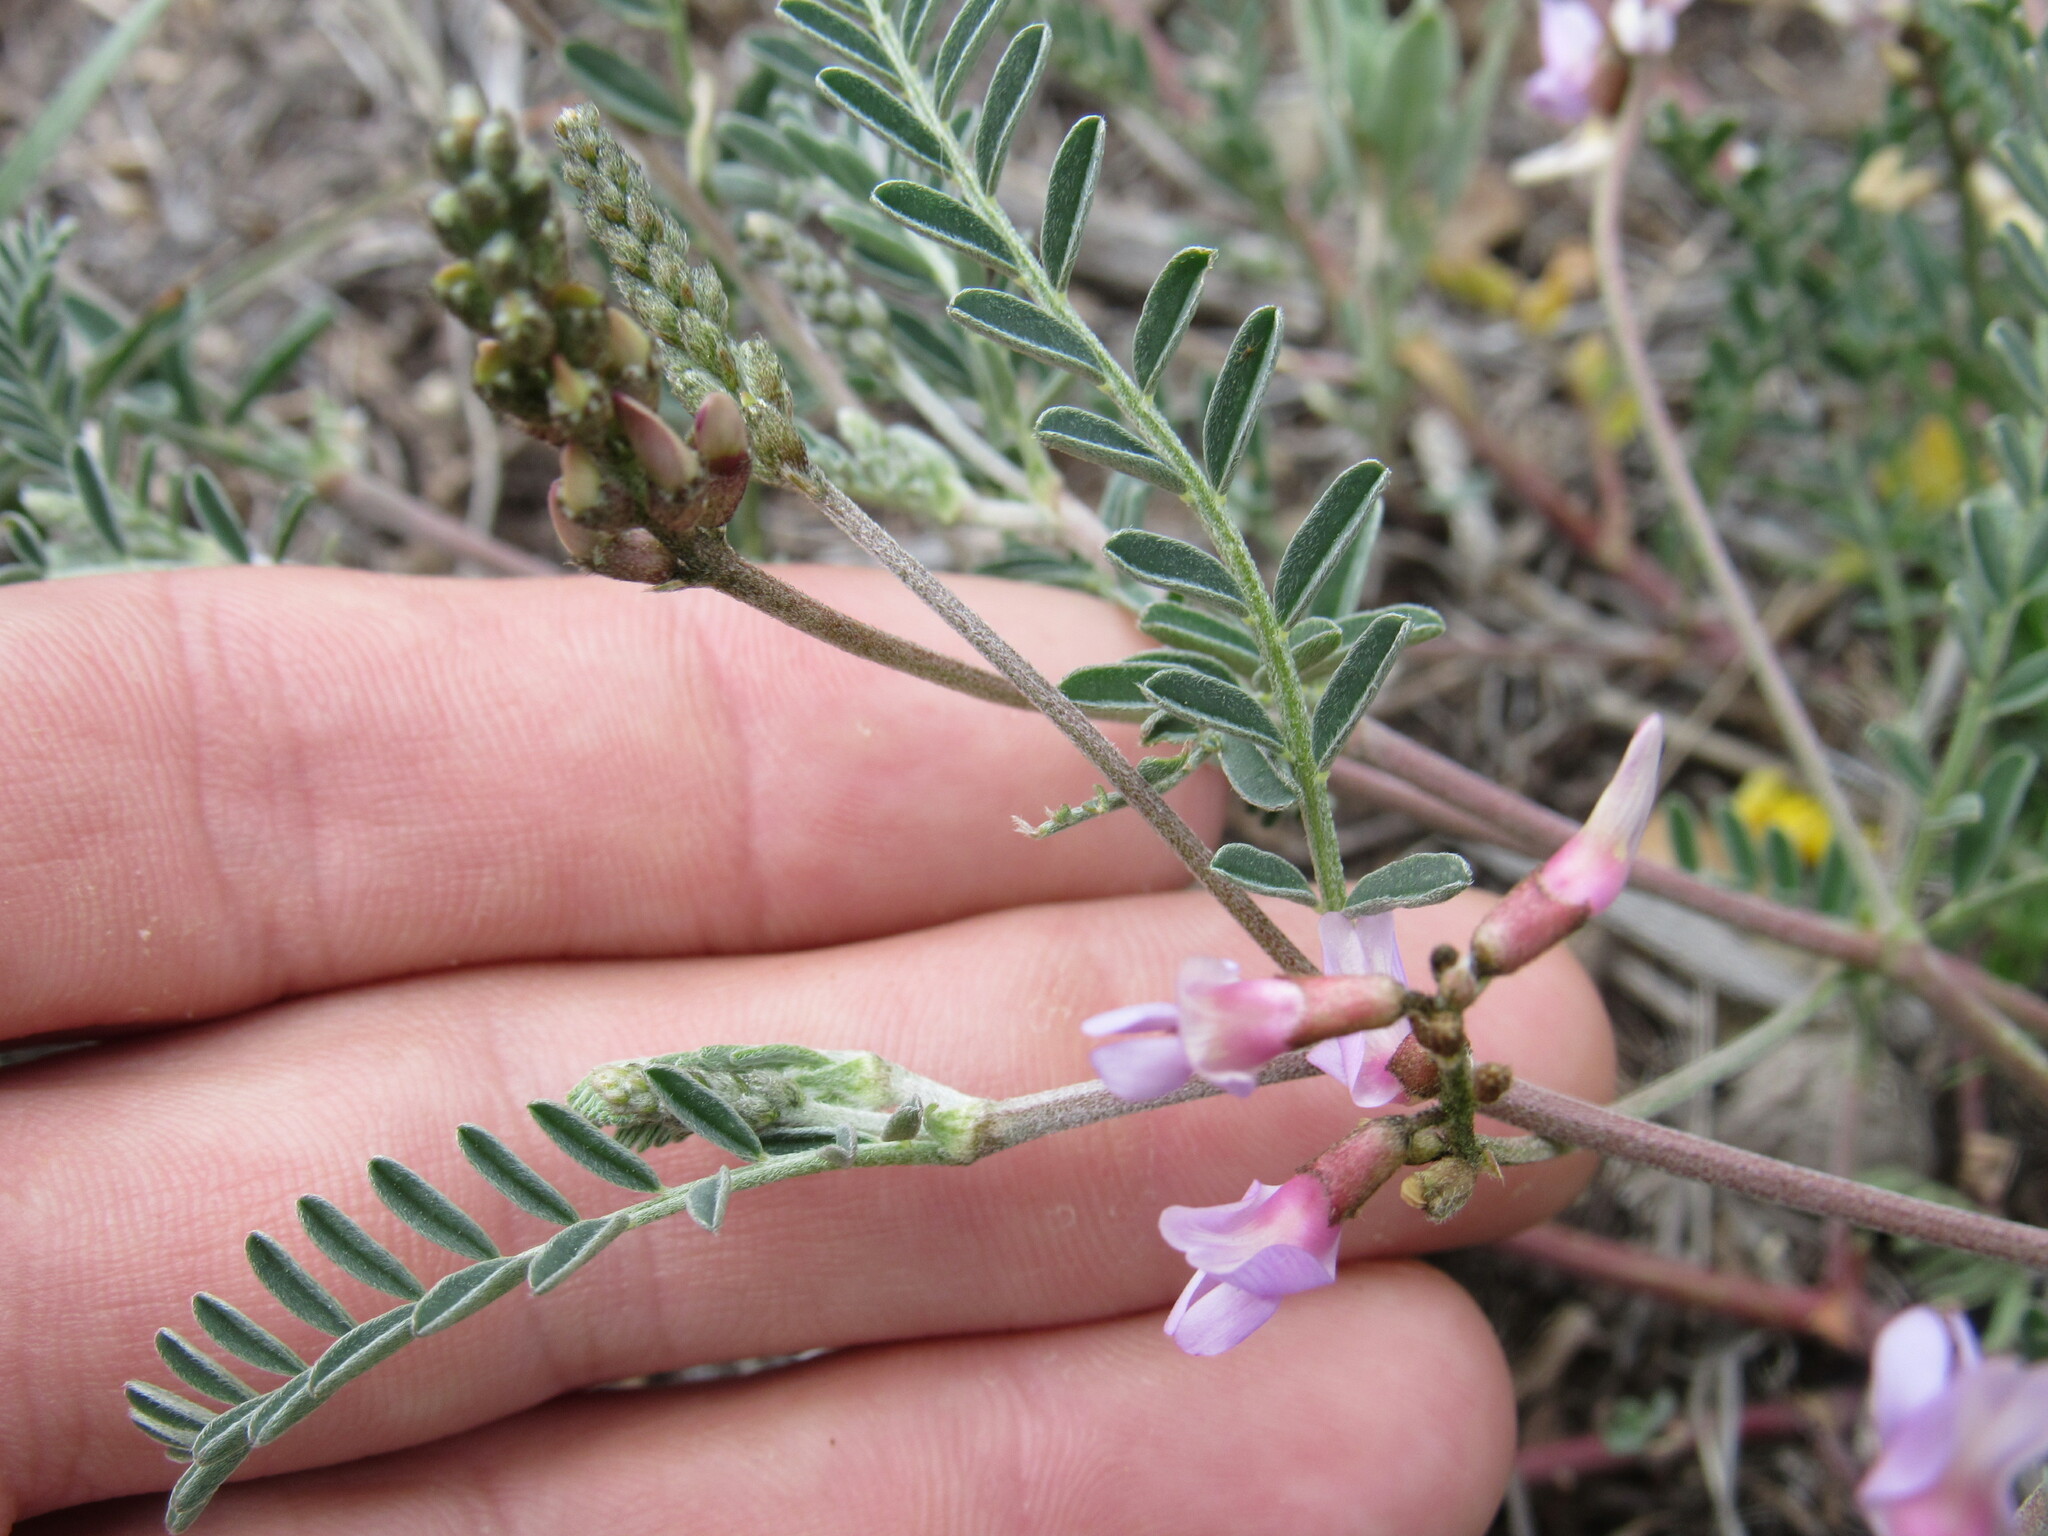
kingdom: Plantae
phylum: Tracheophyta
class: Magnoliopsida
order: Fabales
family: Fabaceae
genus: Astragalus
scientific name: Astragalus flexuosus
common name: Pliant milk-vetch
